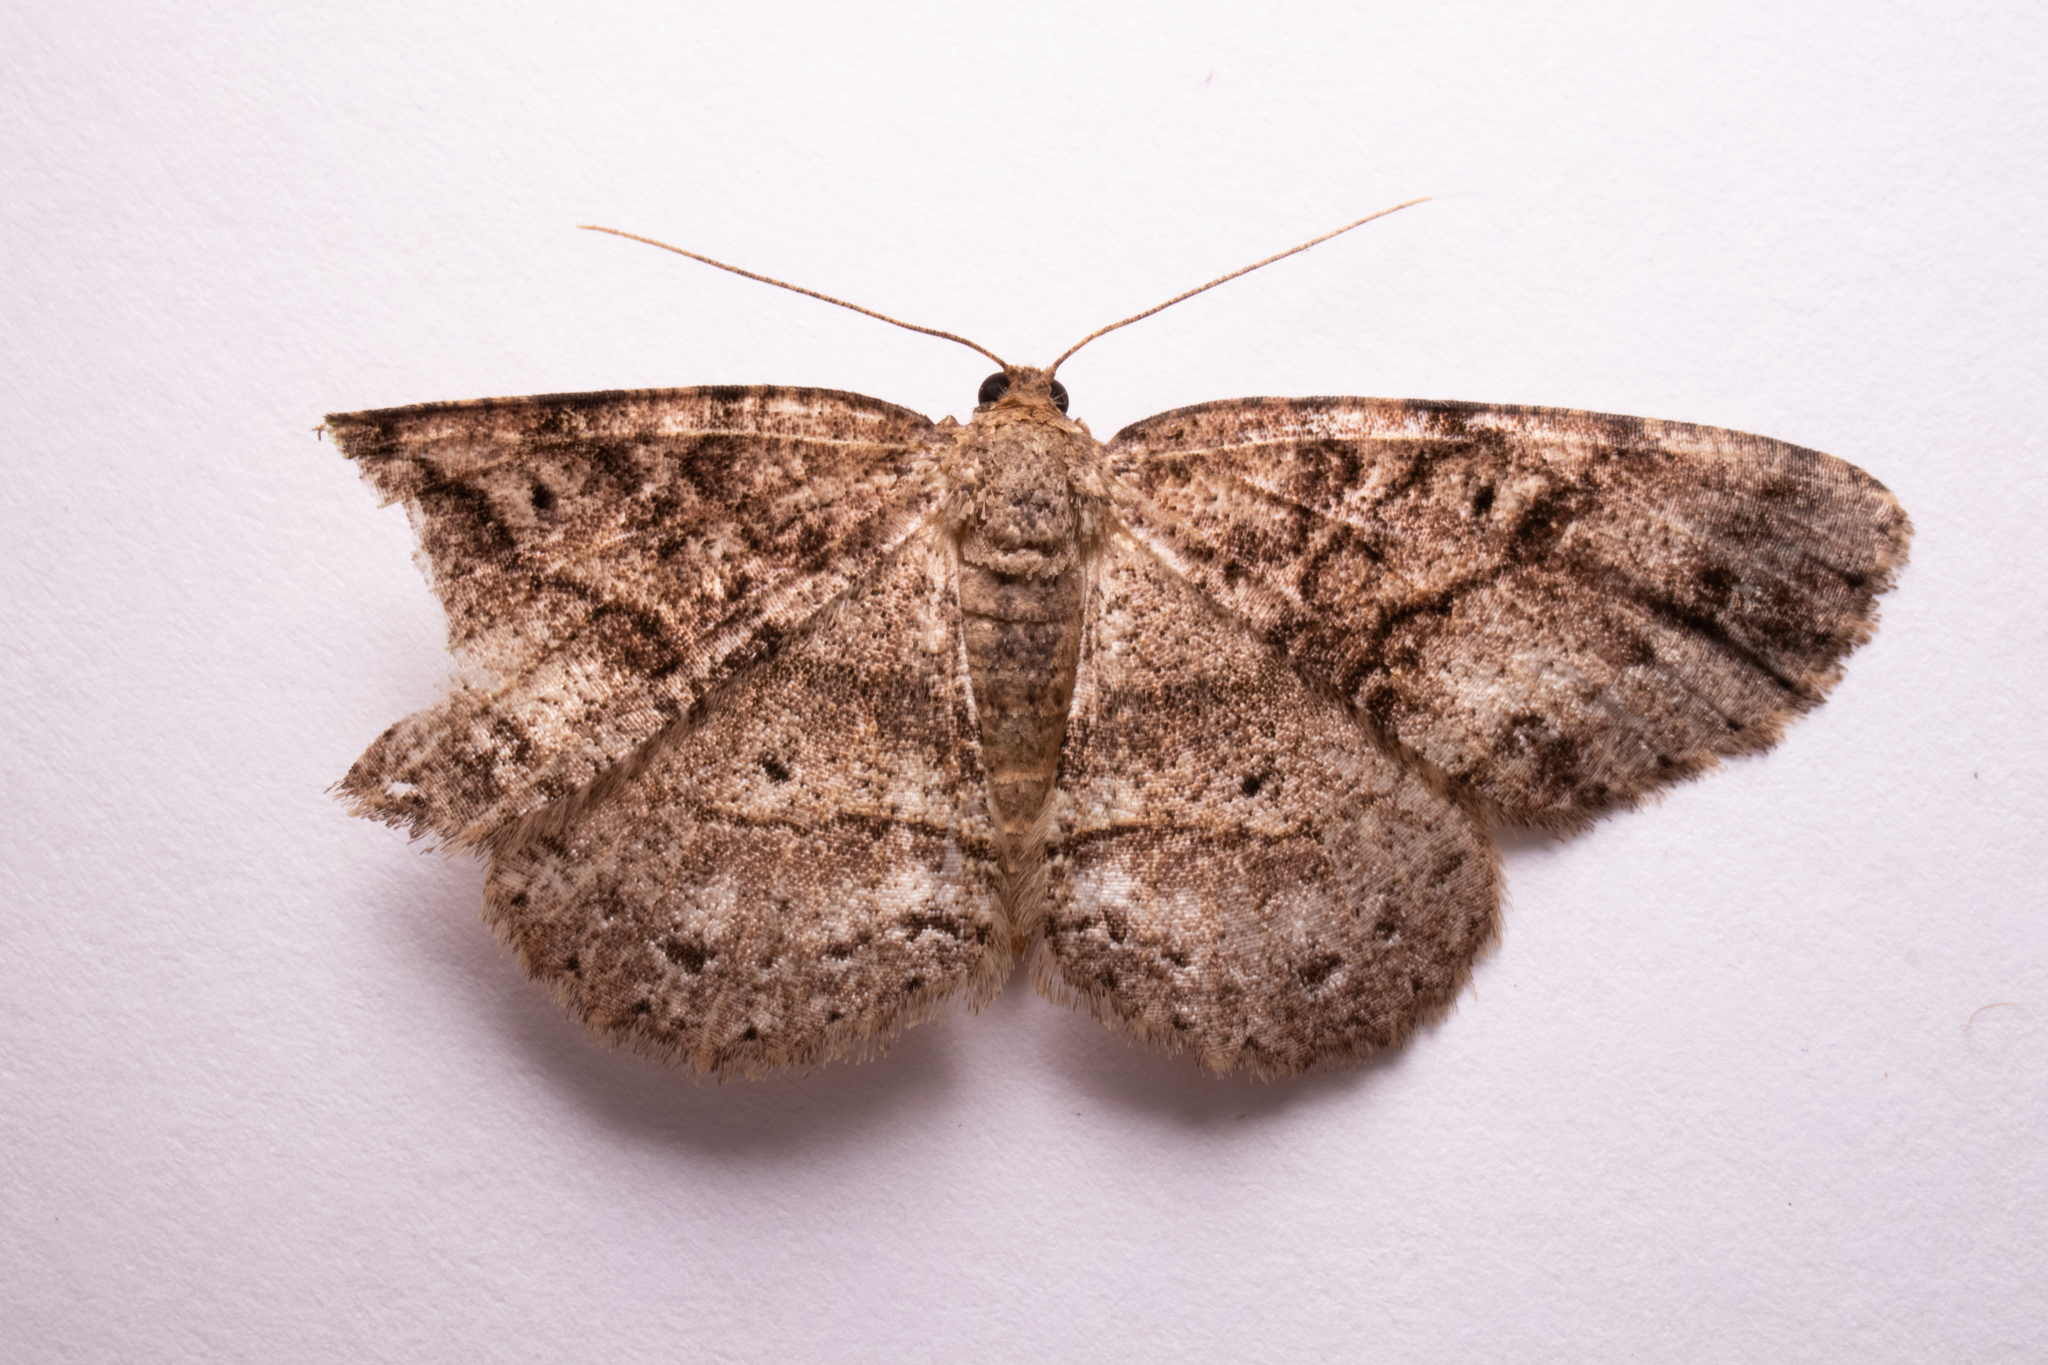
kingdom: Animalia
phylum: Arthropoda
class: Insecta
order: Lepidoptera
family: Geometridae
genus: Melanolophia
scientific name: Melanolophia canadaria
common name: Canadian melanolophia
